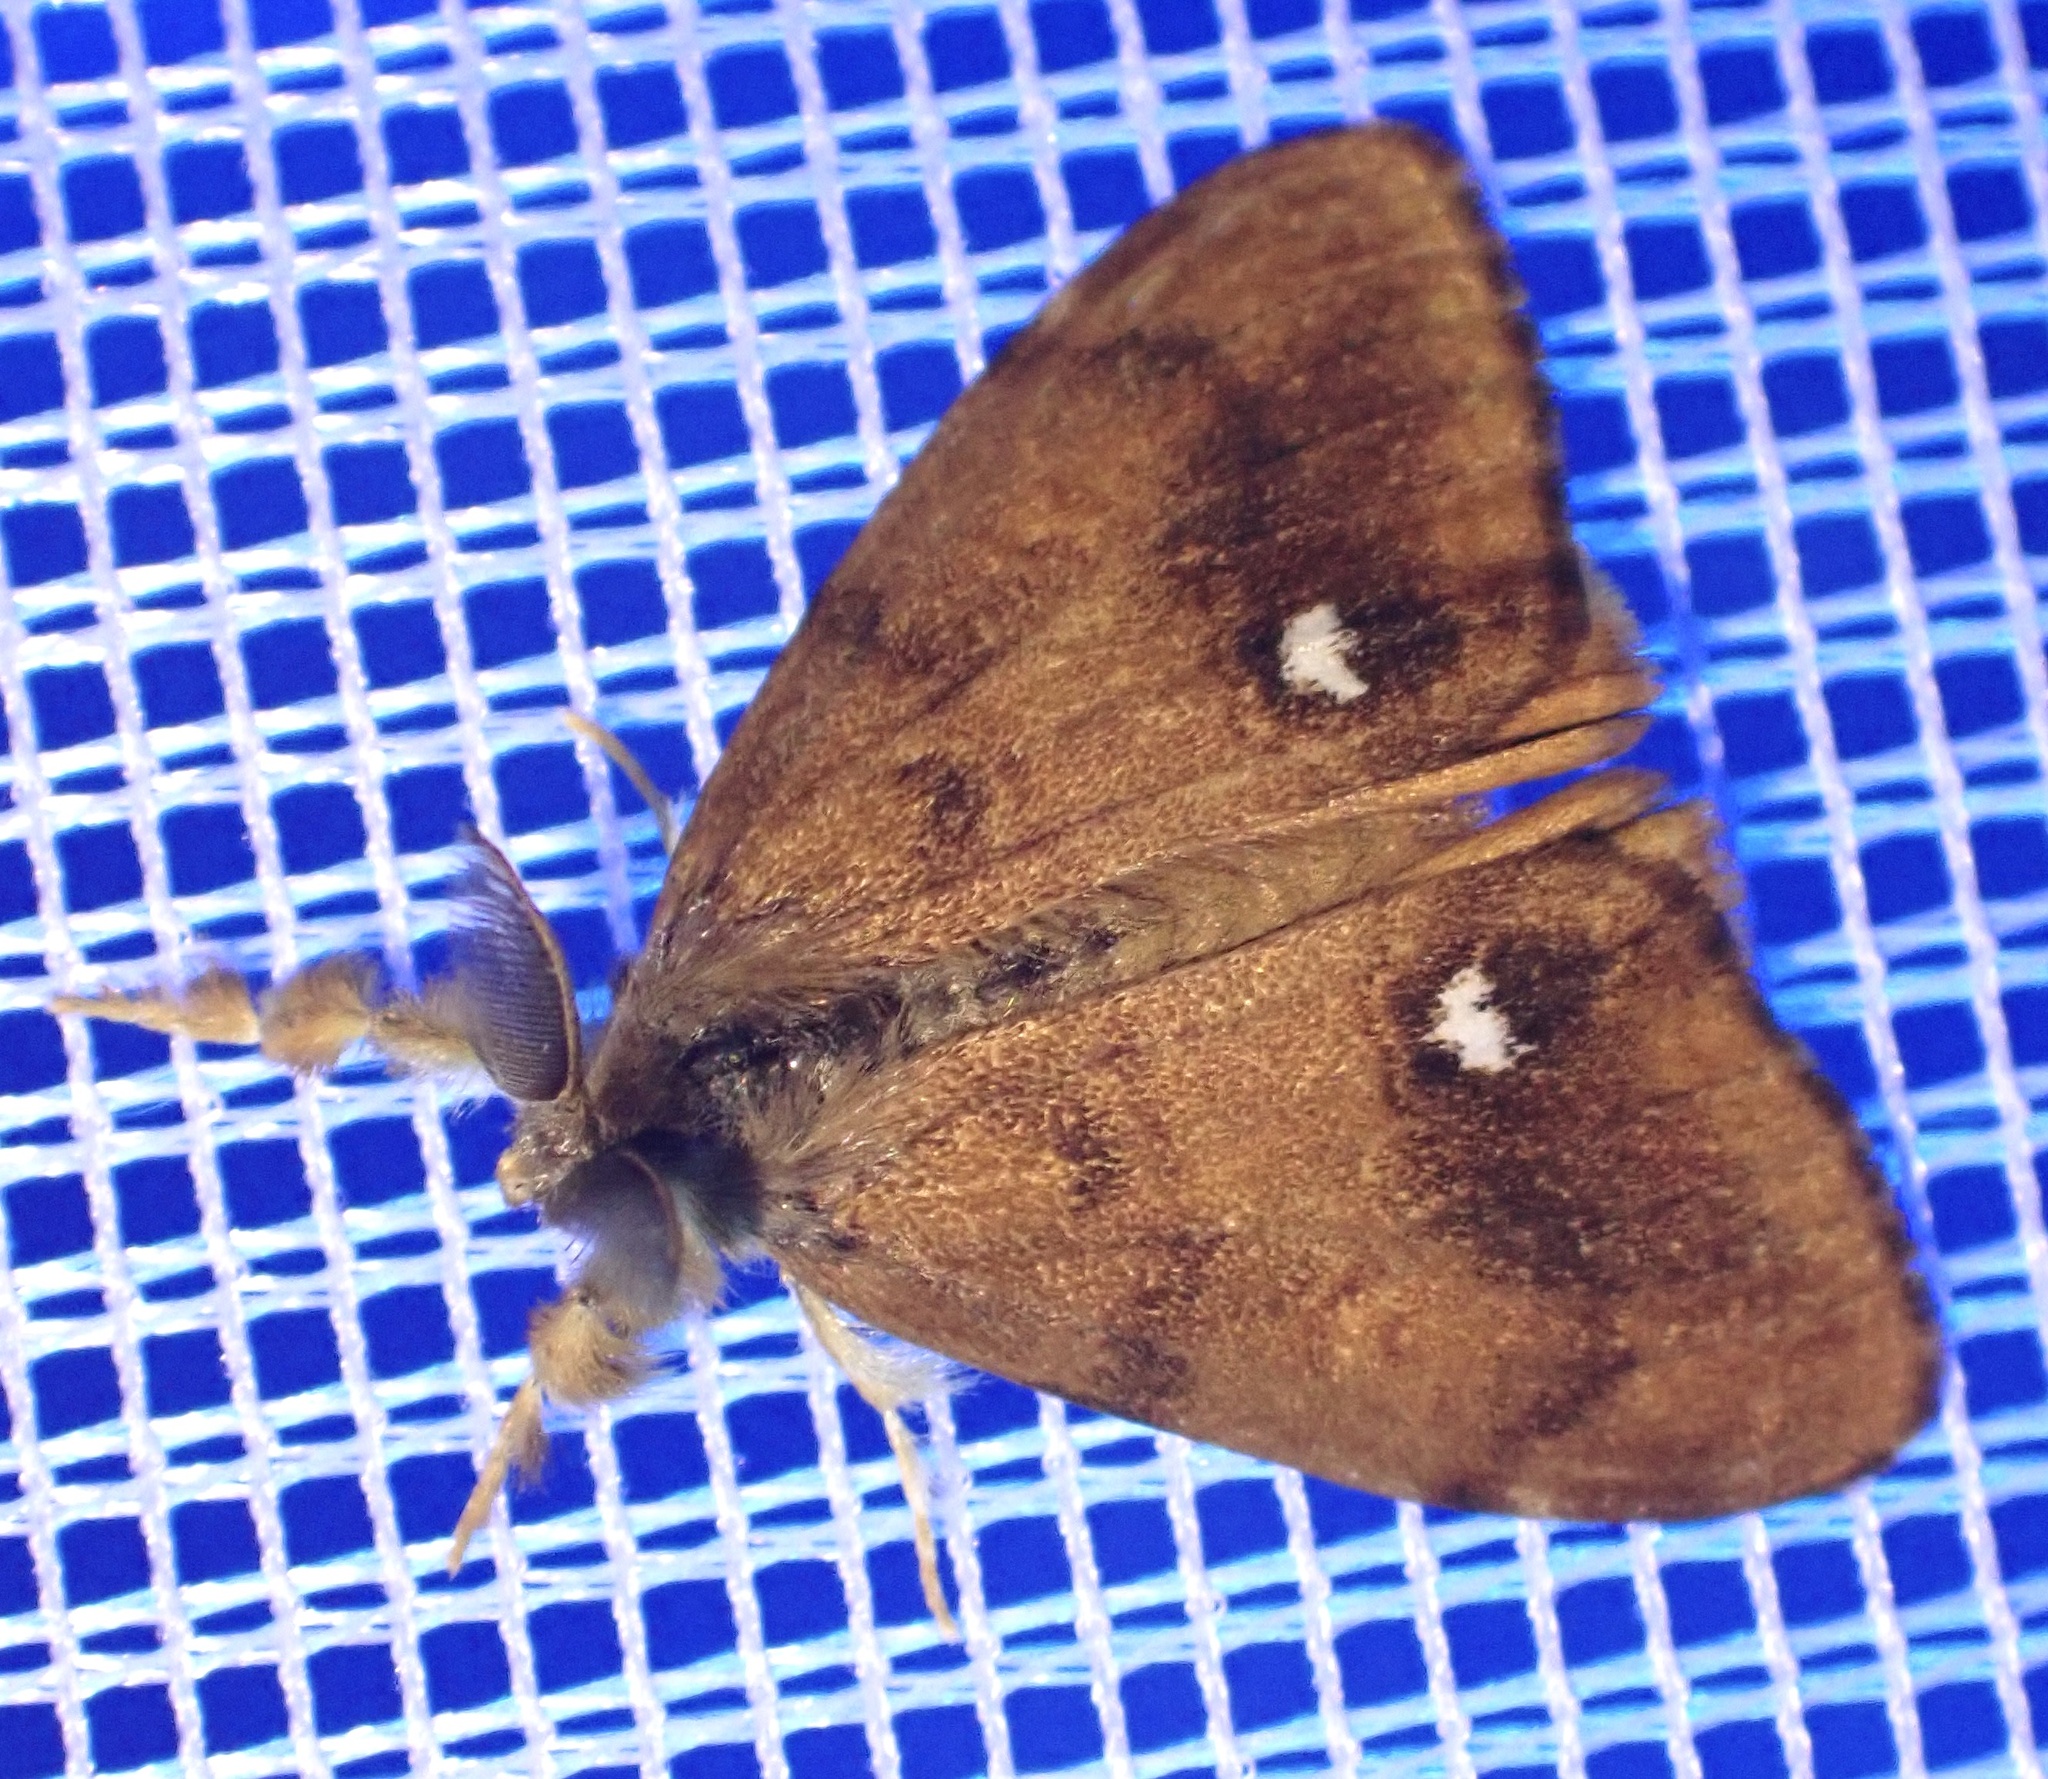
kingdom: Animalia
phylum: Arthropoda
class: Insecta
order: Lepidoptera
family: Erebidae
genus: Orgyia
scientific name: Orgyia antiqua
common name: Vapourer
